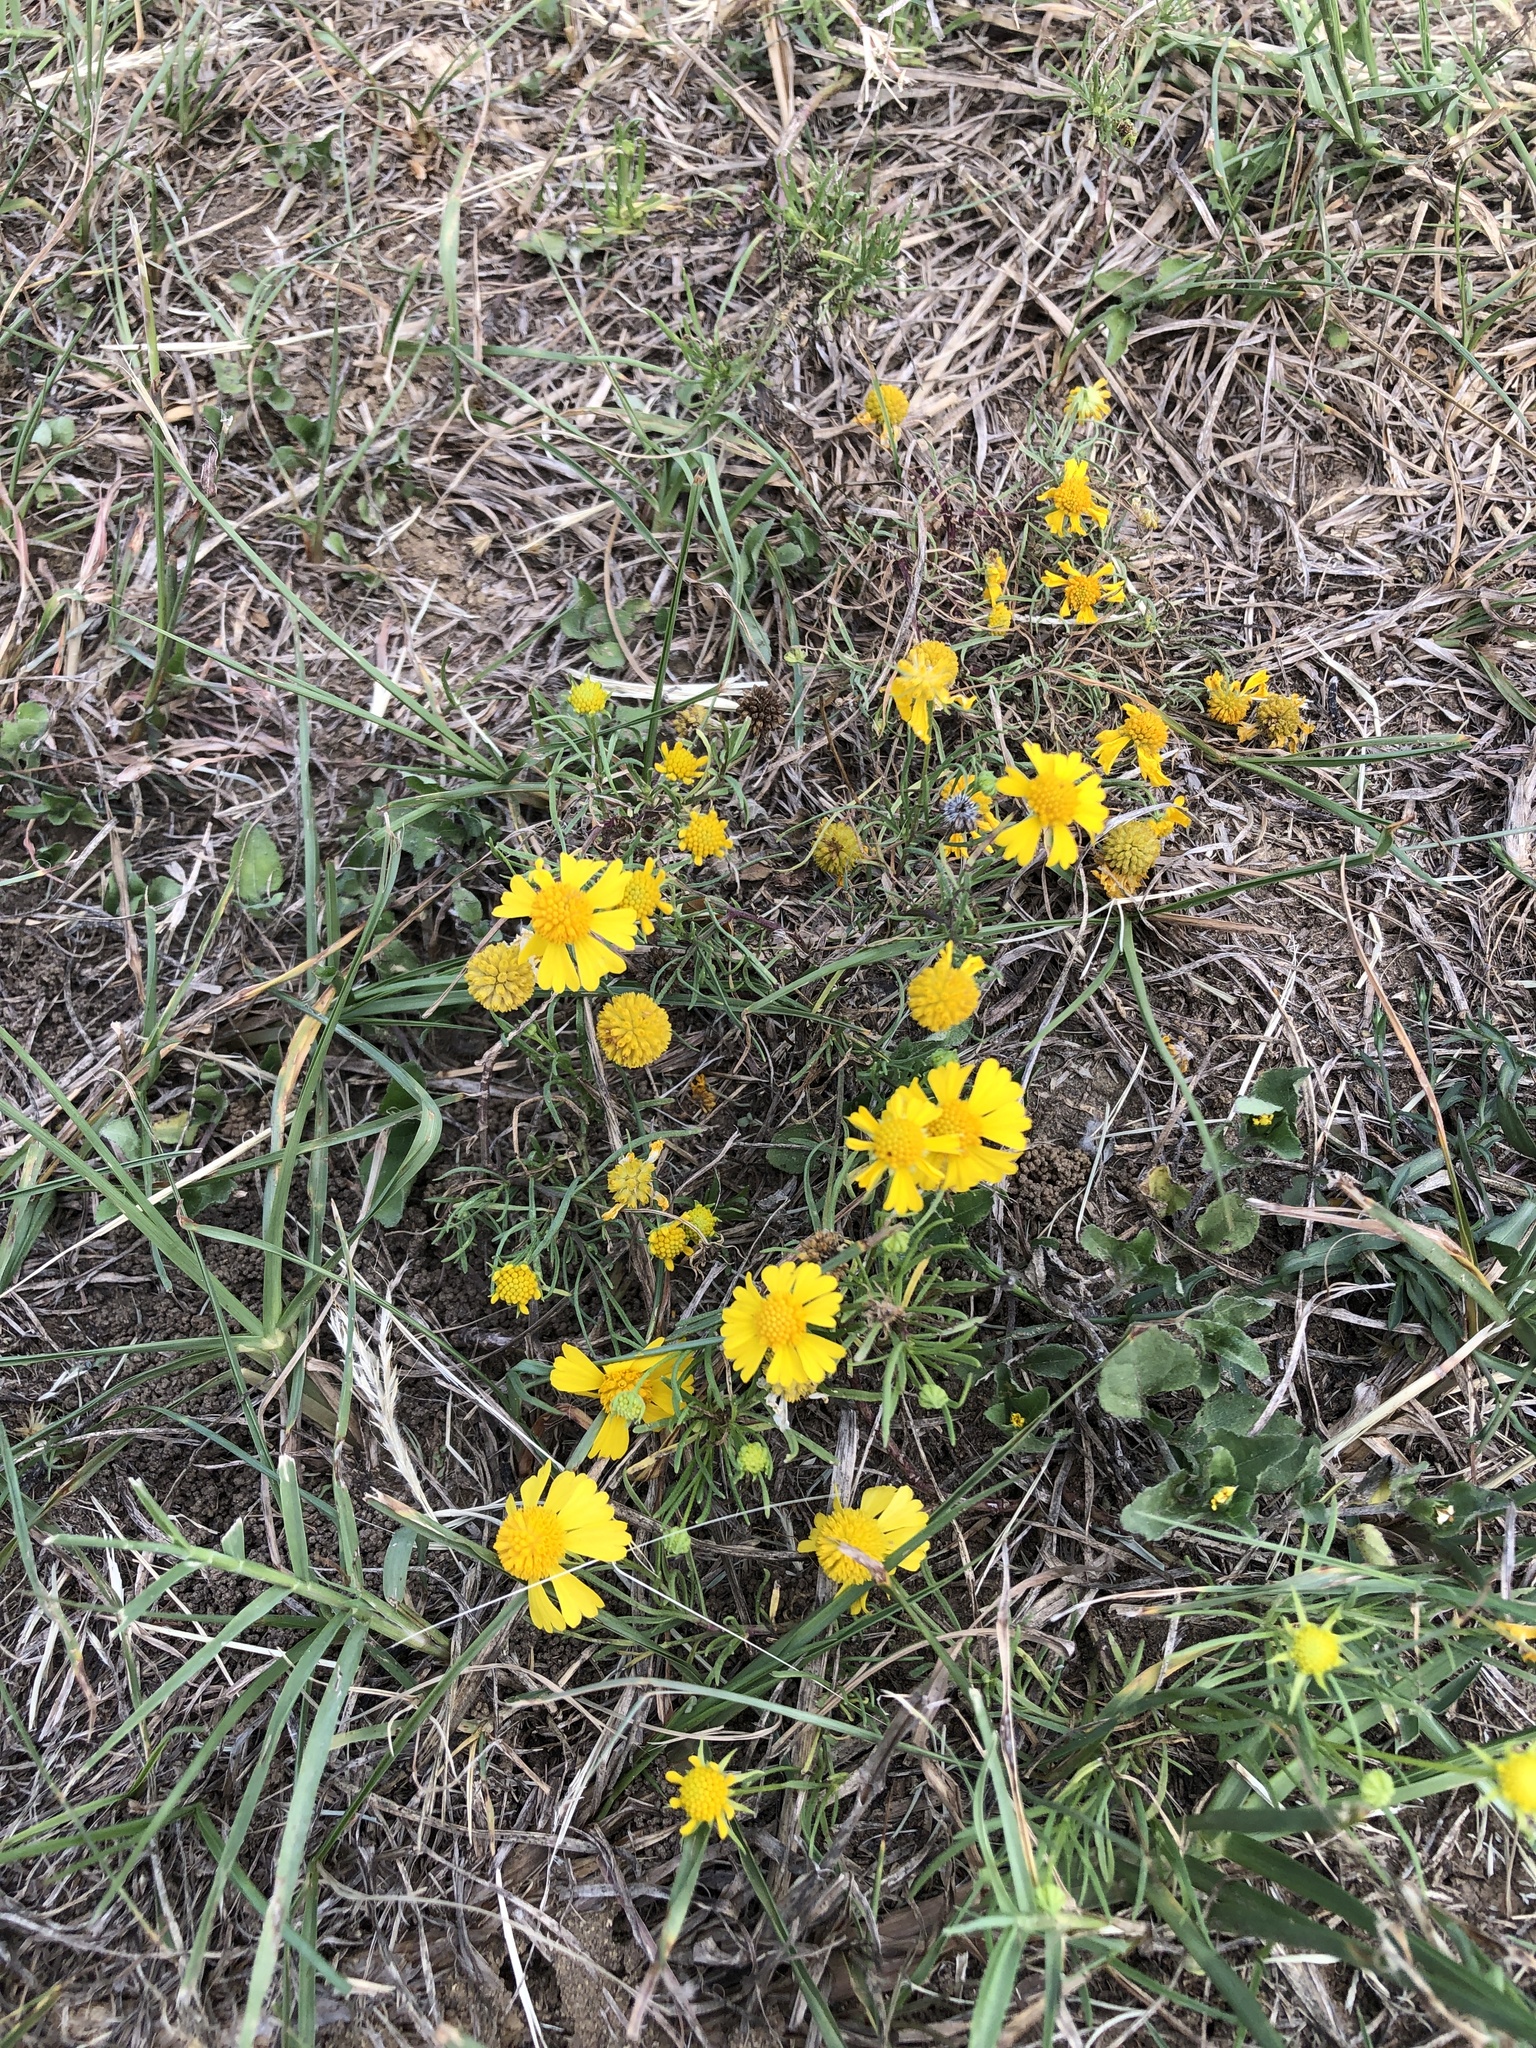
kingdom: Plantae
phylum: Tracheophyta
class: Magnoliopsida
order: Asterales
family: Asteraceae
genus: Helenium
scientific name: Helenium amarum
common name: Bitter sneezeweed
